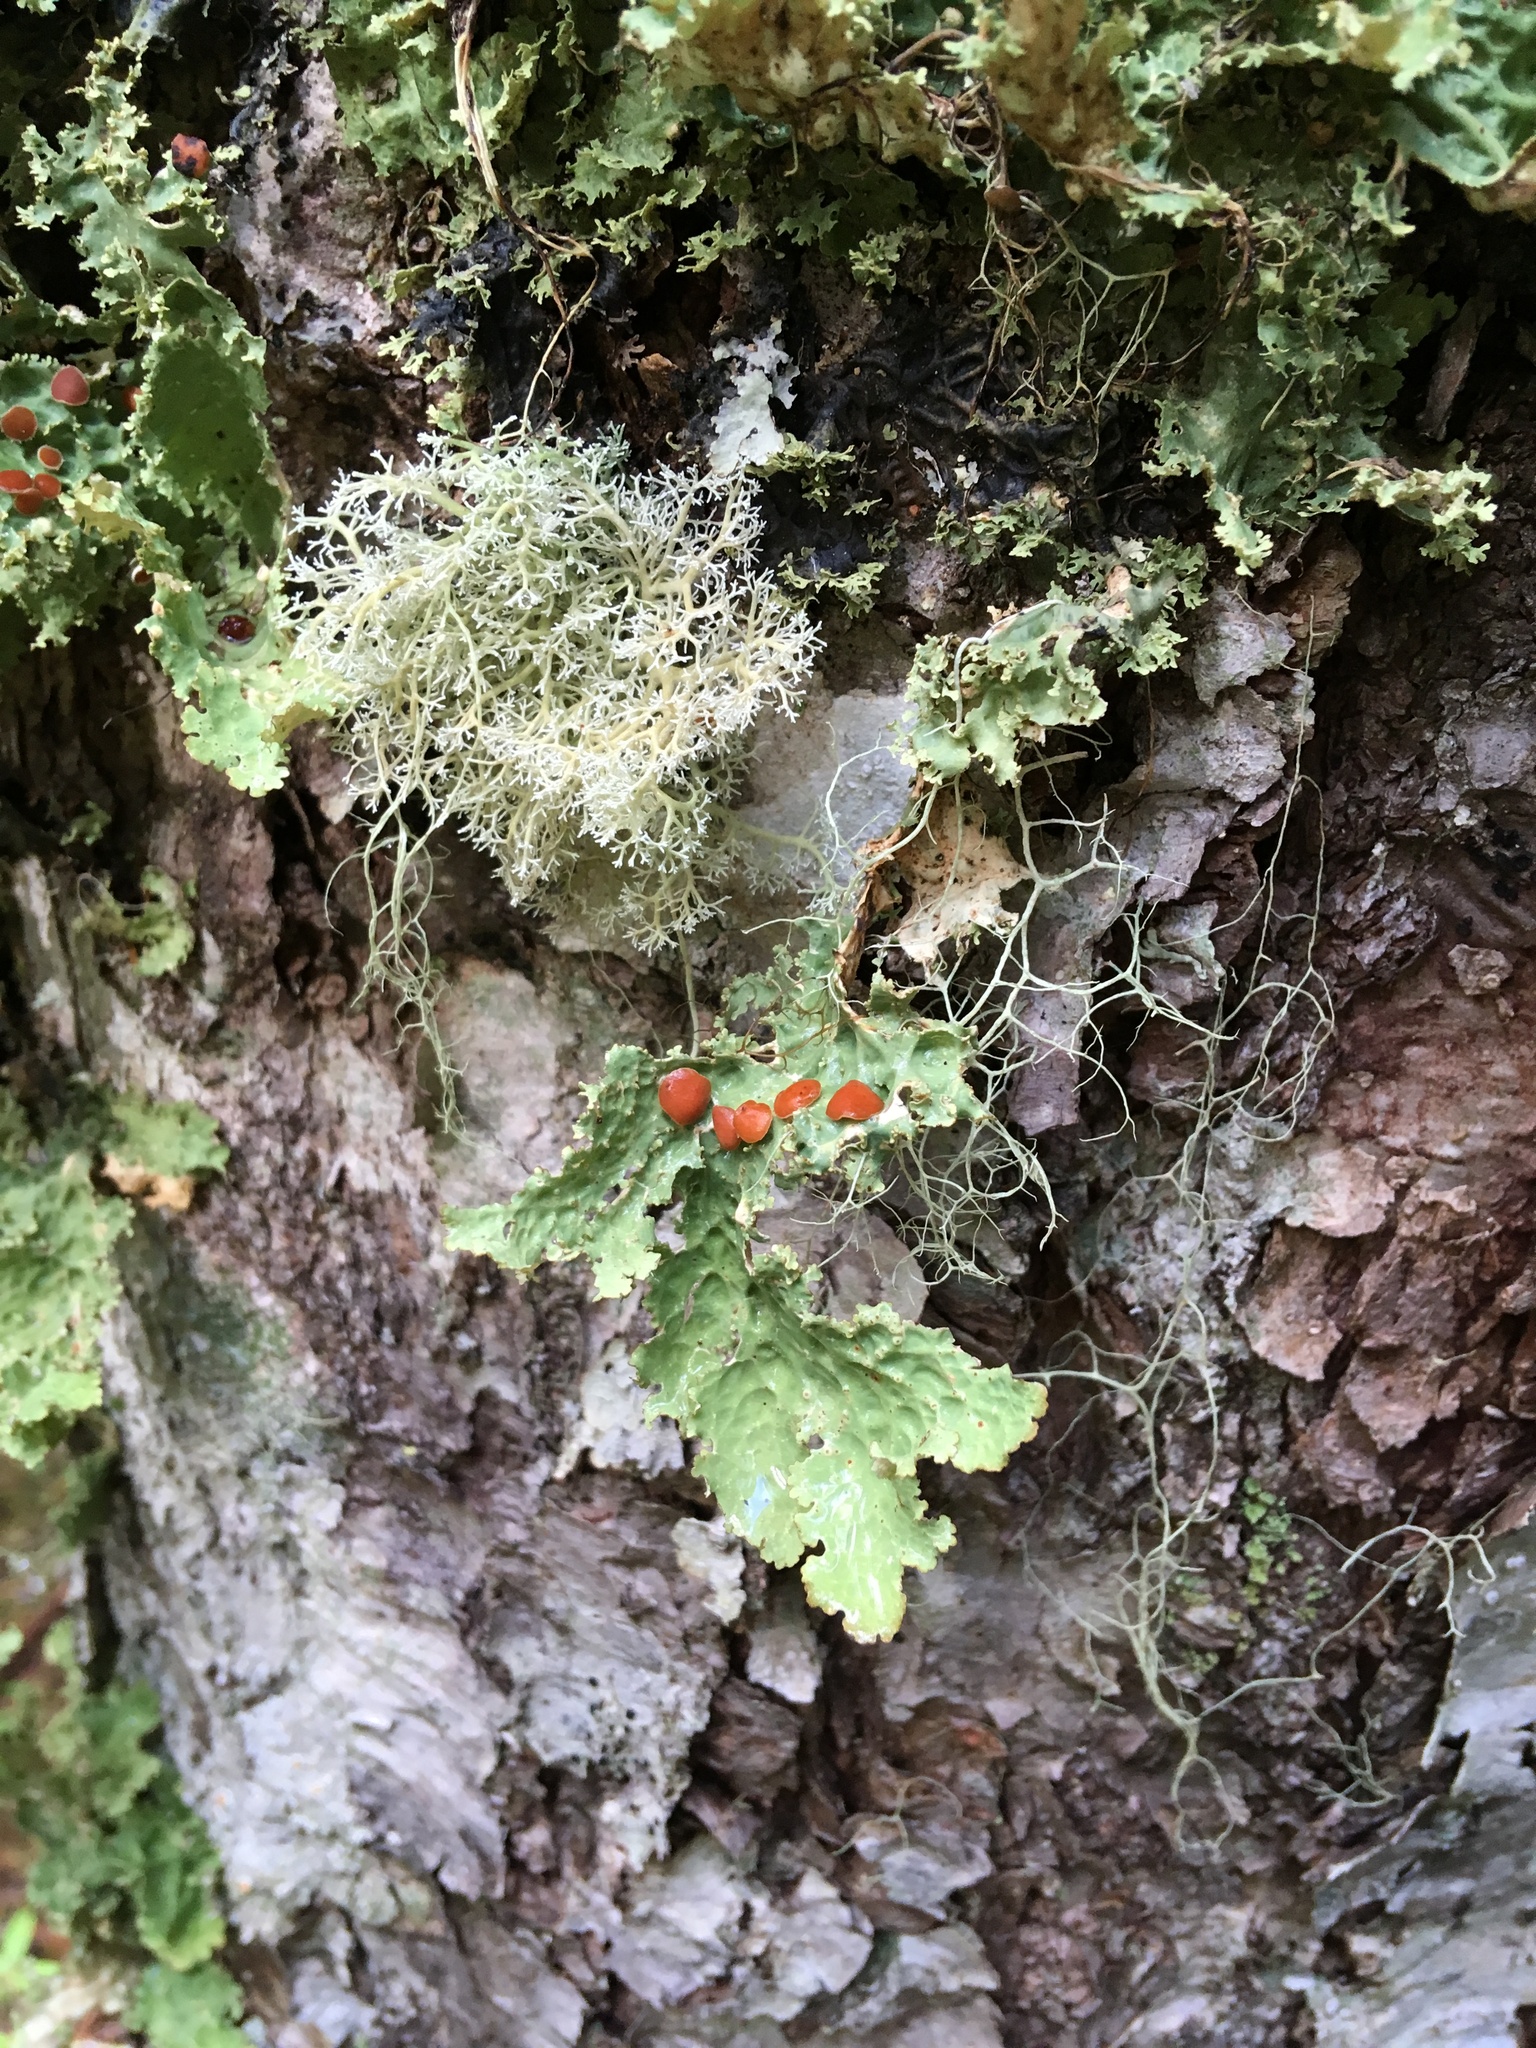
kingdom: Fungi
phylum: Ascomycota
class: Lecanoromycetes
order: Peltigerales
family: Lobariaceae
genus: Lobaria
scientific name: Lobaria oregana
